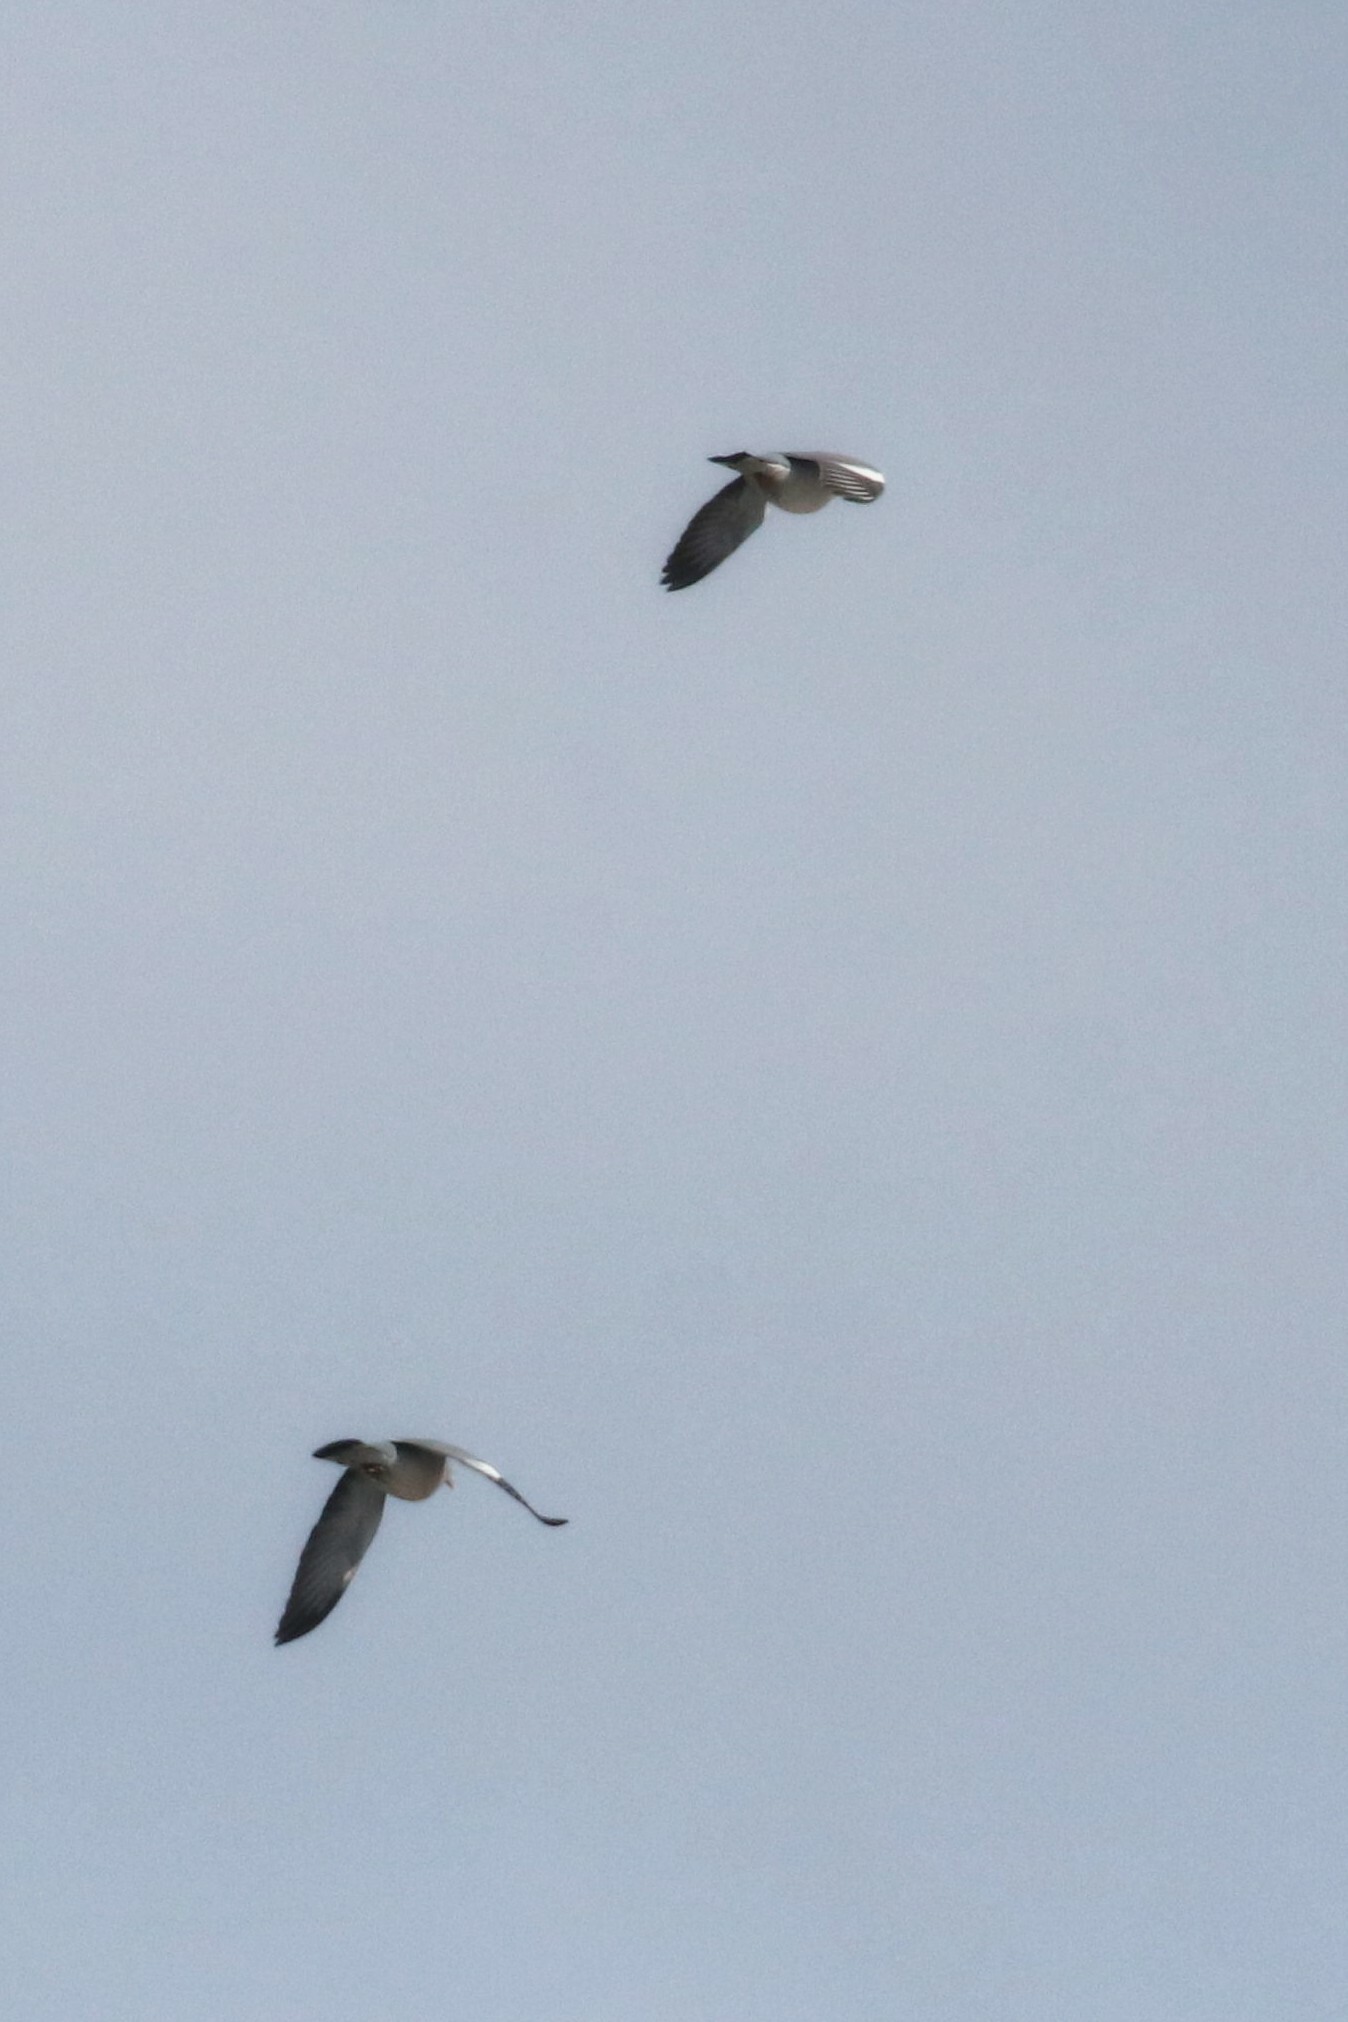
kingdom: Animalia
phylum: Chordata
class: Aves
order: Columbiformes
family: Columbidae
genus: Columba
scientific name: Columba palumbus
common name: Common wood pigeon
